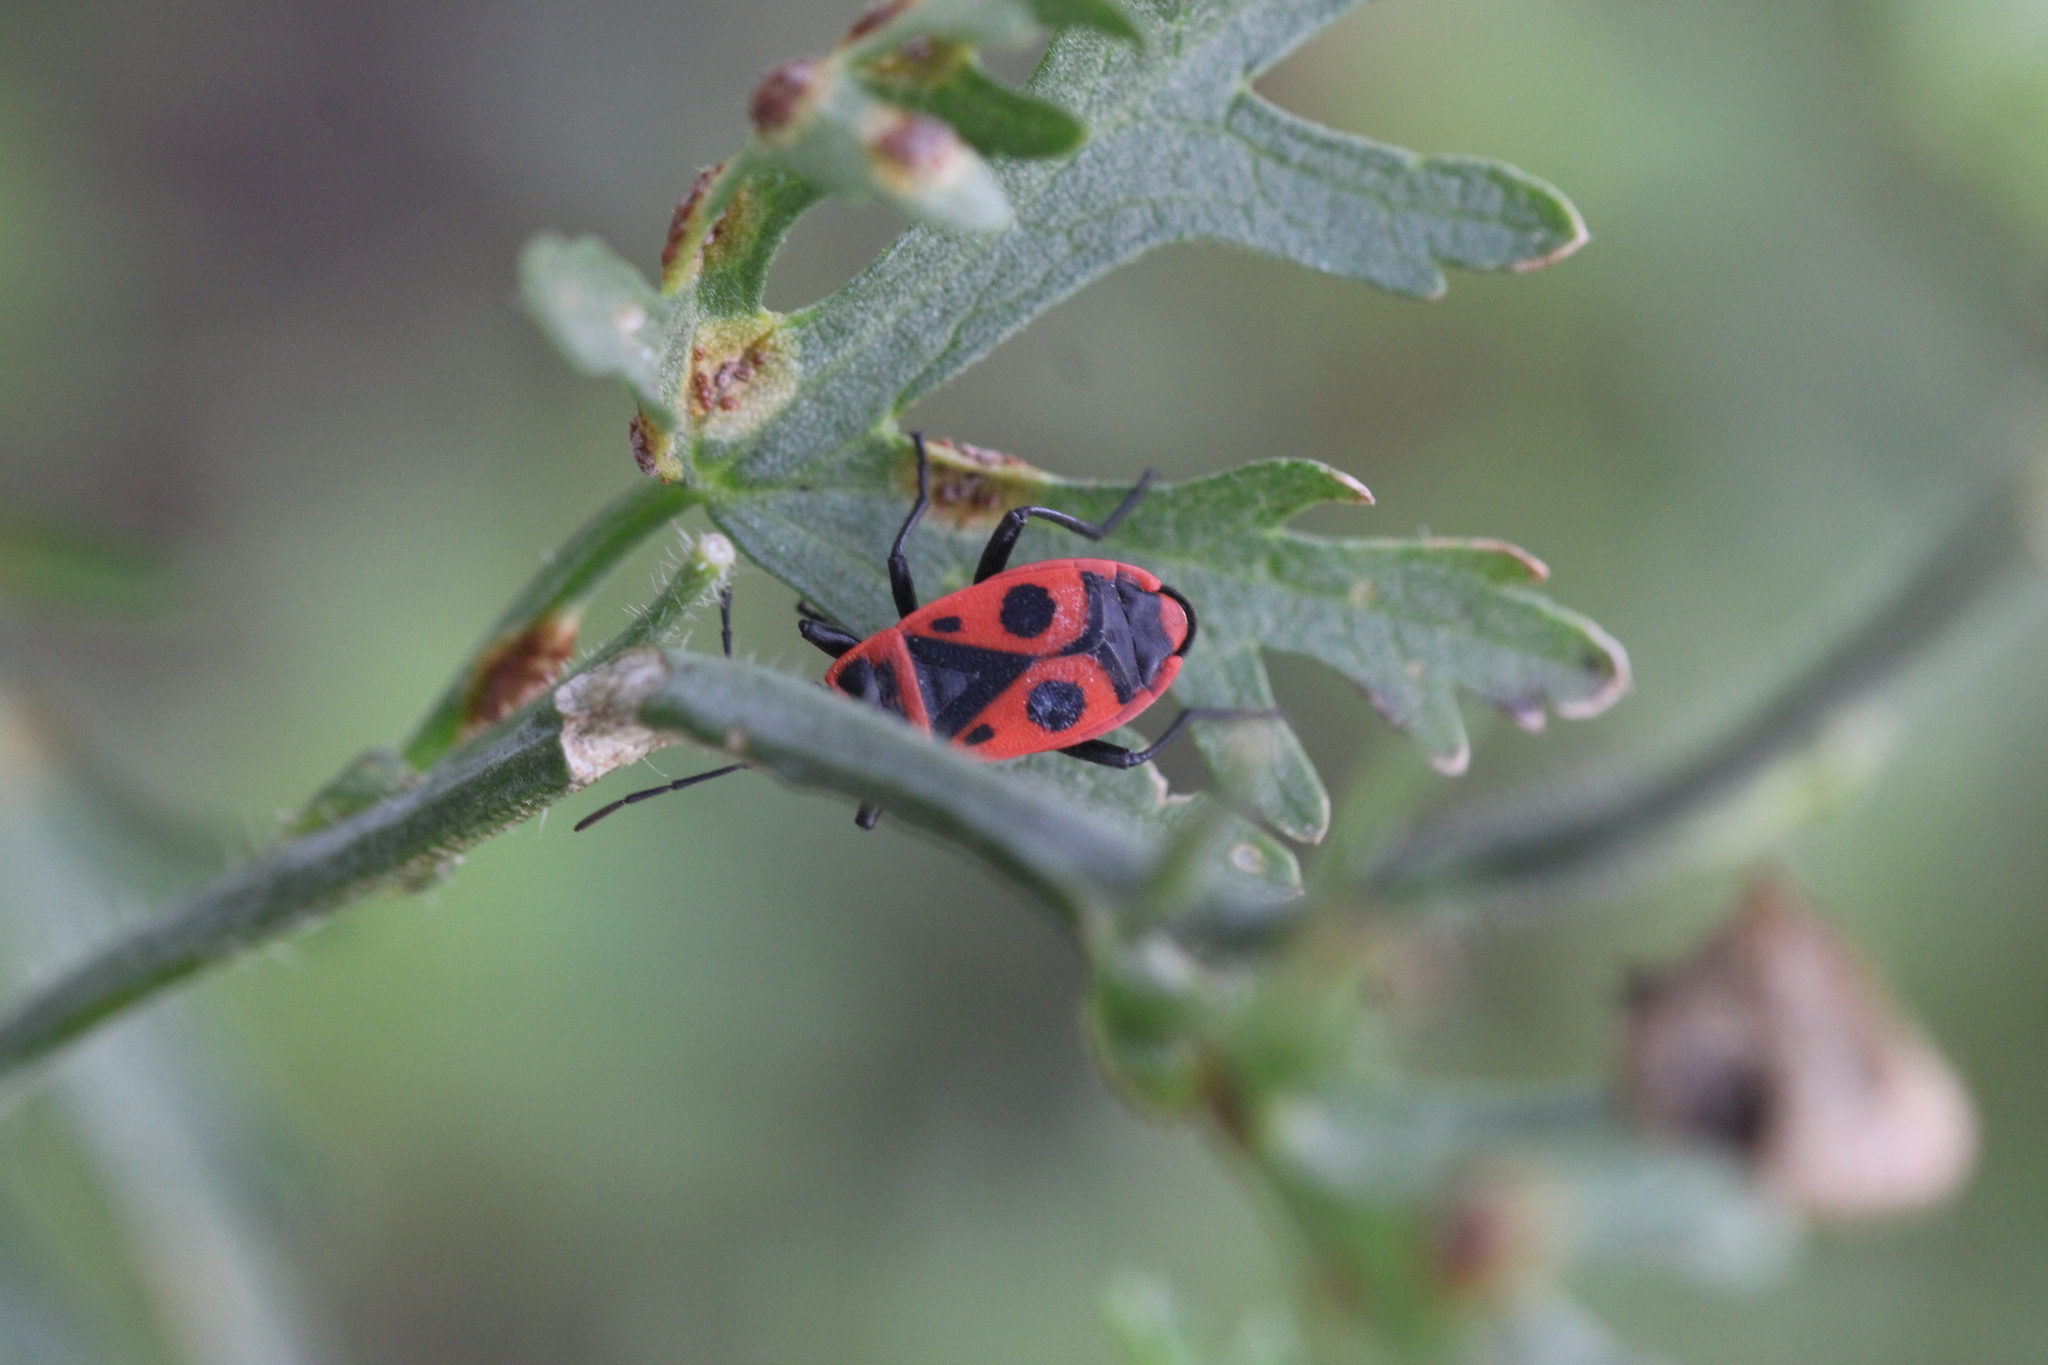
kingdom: Animalia
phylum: Arthropoda
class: Insecta
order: Hemiptera
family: Pyrrhocoridae
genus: Pyrrhocoris
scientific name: Pyrrhocoris apterus
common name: Firebug
